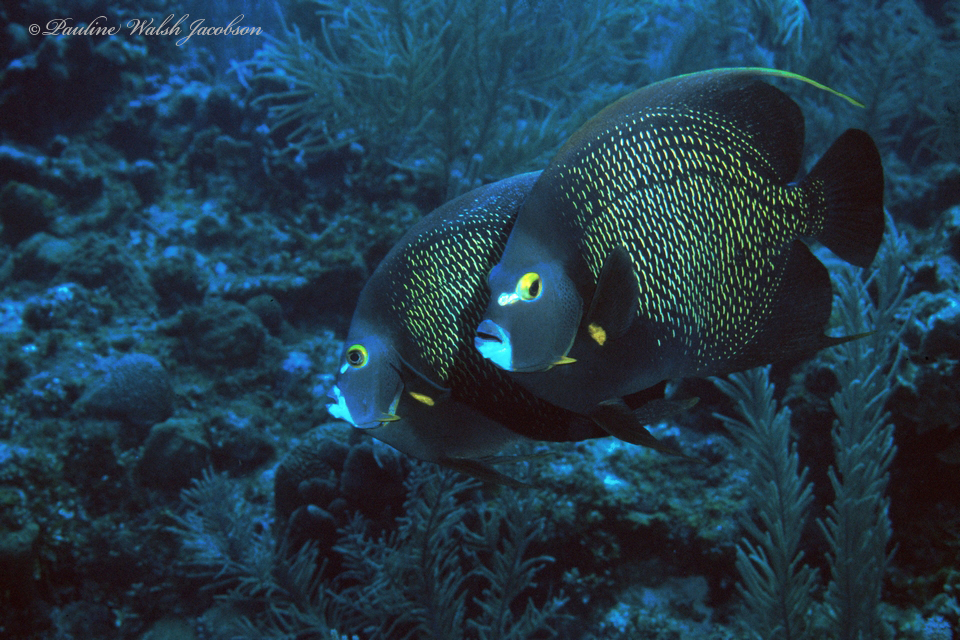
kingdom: Animalia
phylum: Chordata
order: Perciformes
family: Pomacanthidae
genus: Pomacanthus
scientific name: Pomacanthus paru
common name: French angelfish
